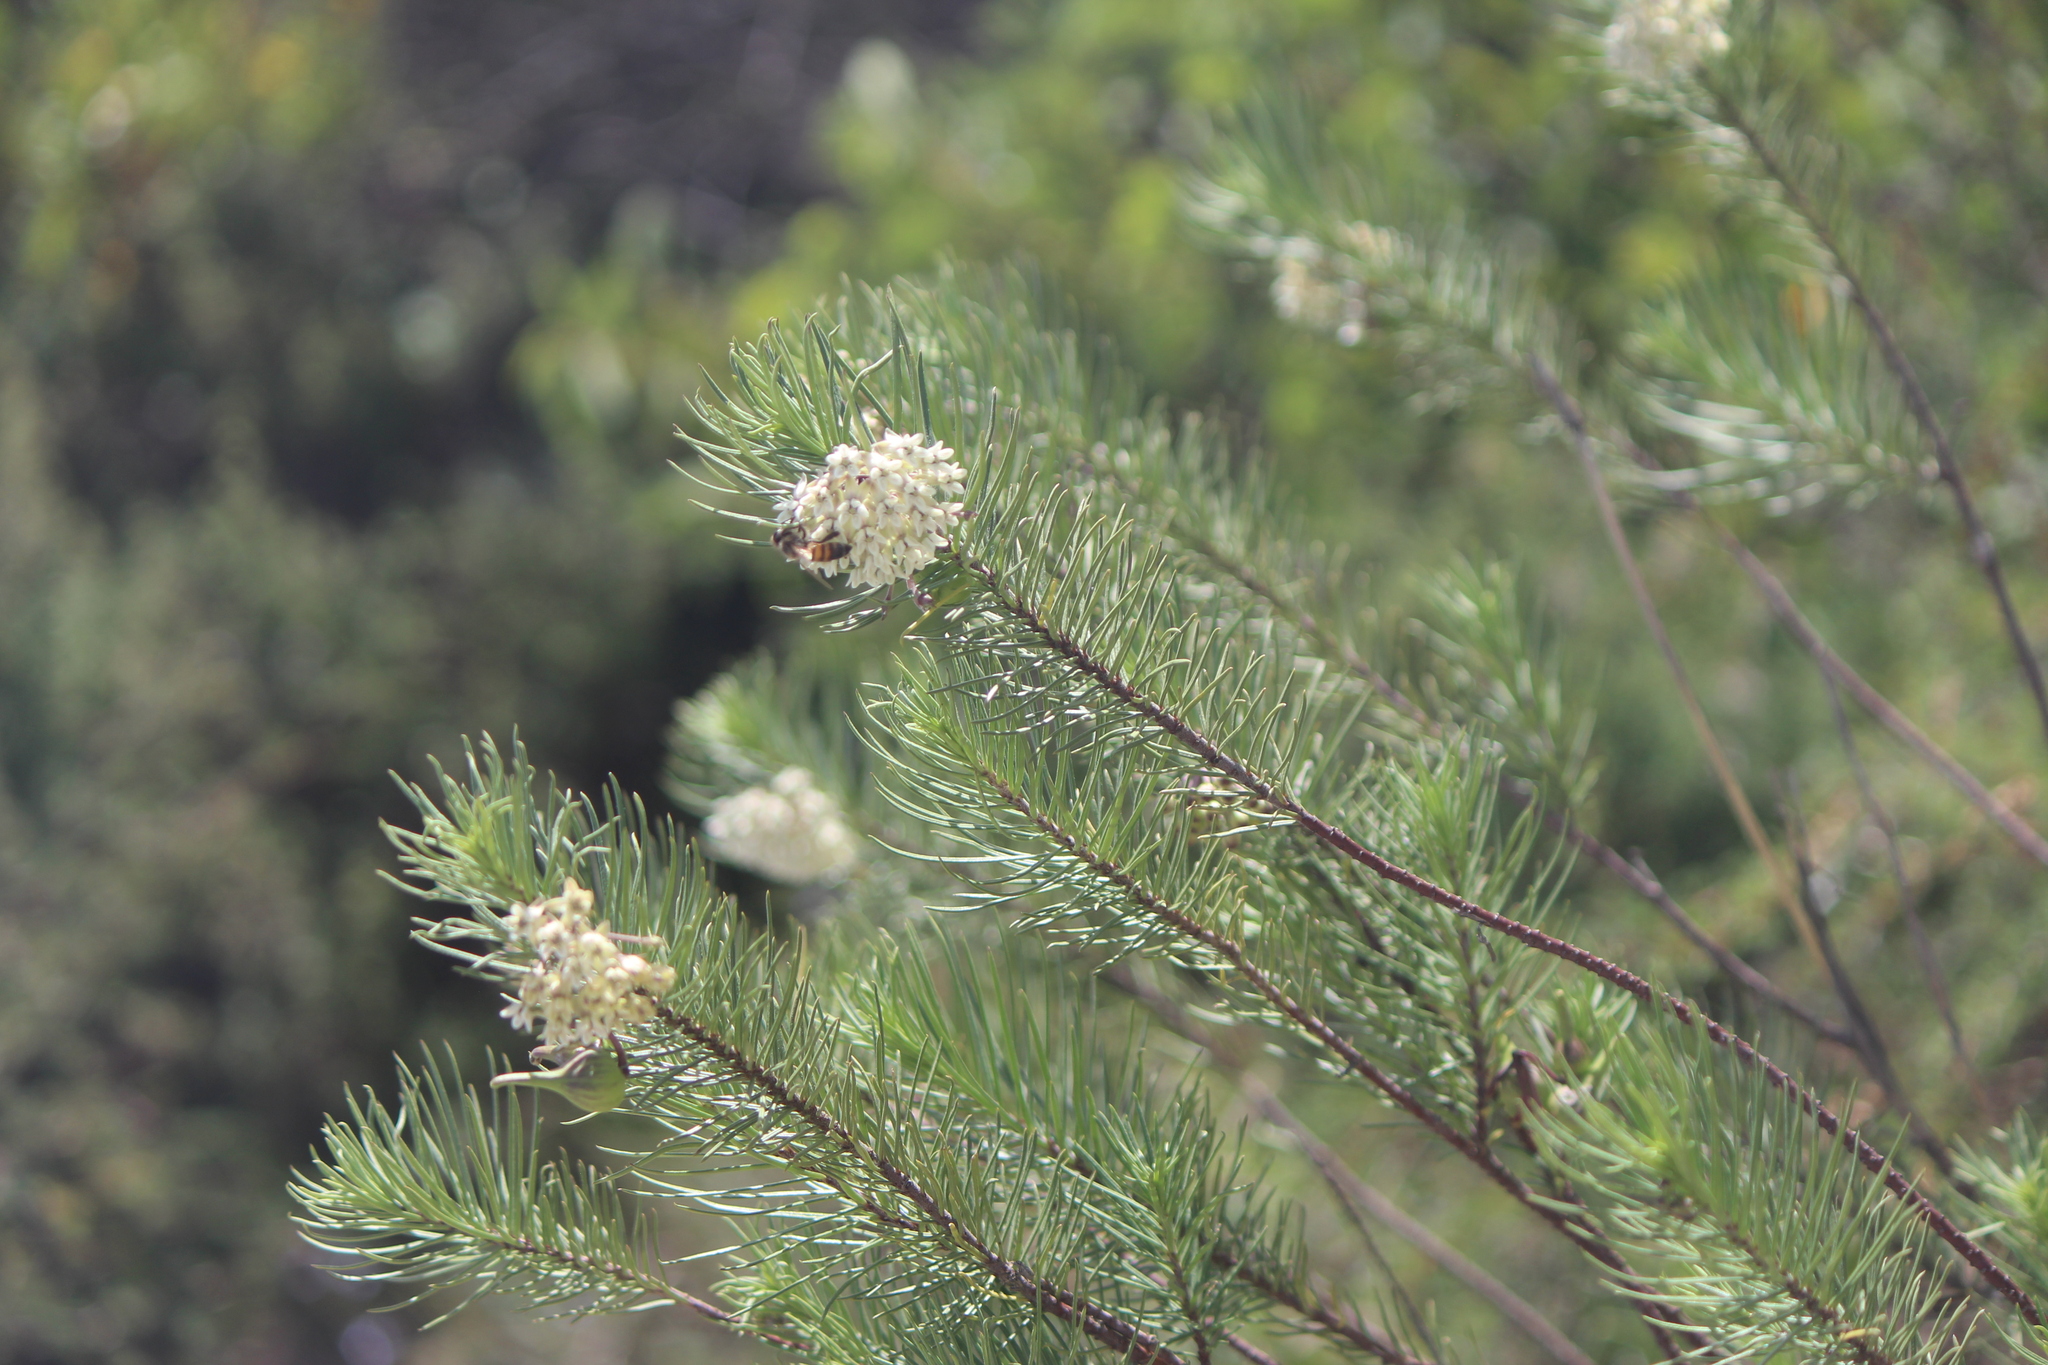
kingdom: Plantae
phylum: Tracheophyta
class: Magnoliopsida
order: Gentianales
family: Apocynaceae
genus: Asclepias
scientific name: Asclepias linaria
